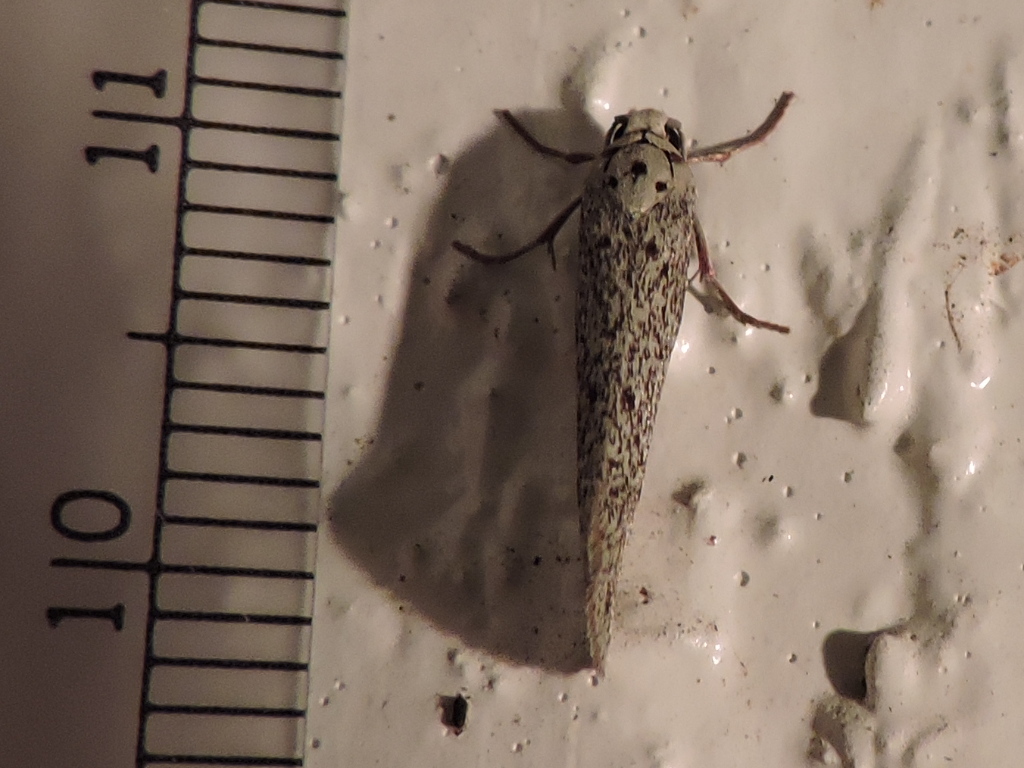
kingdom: Animalia
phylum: Arthropoda
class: Insecta
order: Lepidoptera
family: Lacturidae
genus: Lactura
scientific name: Lactura
